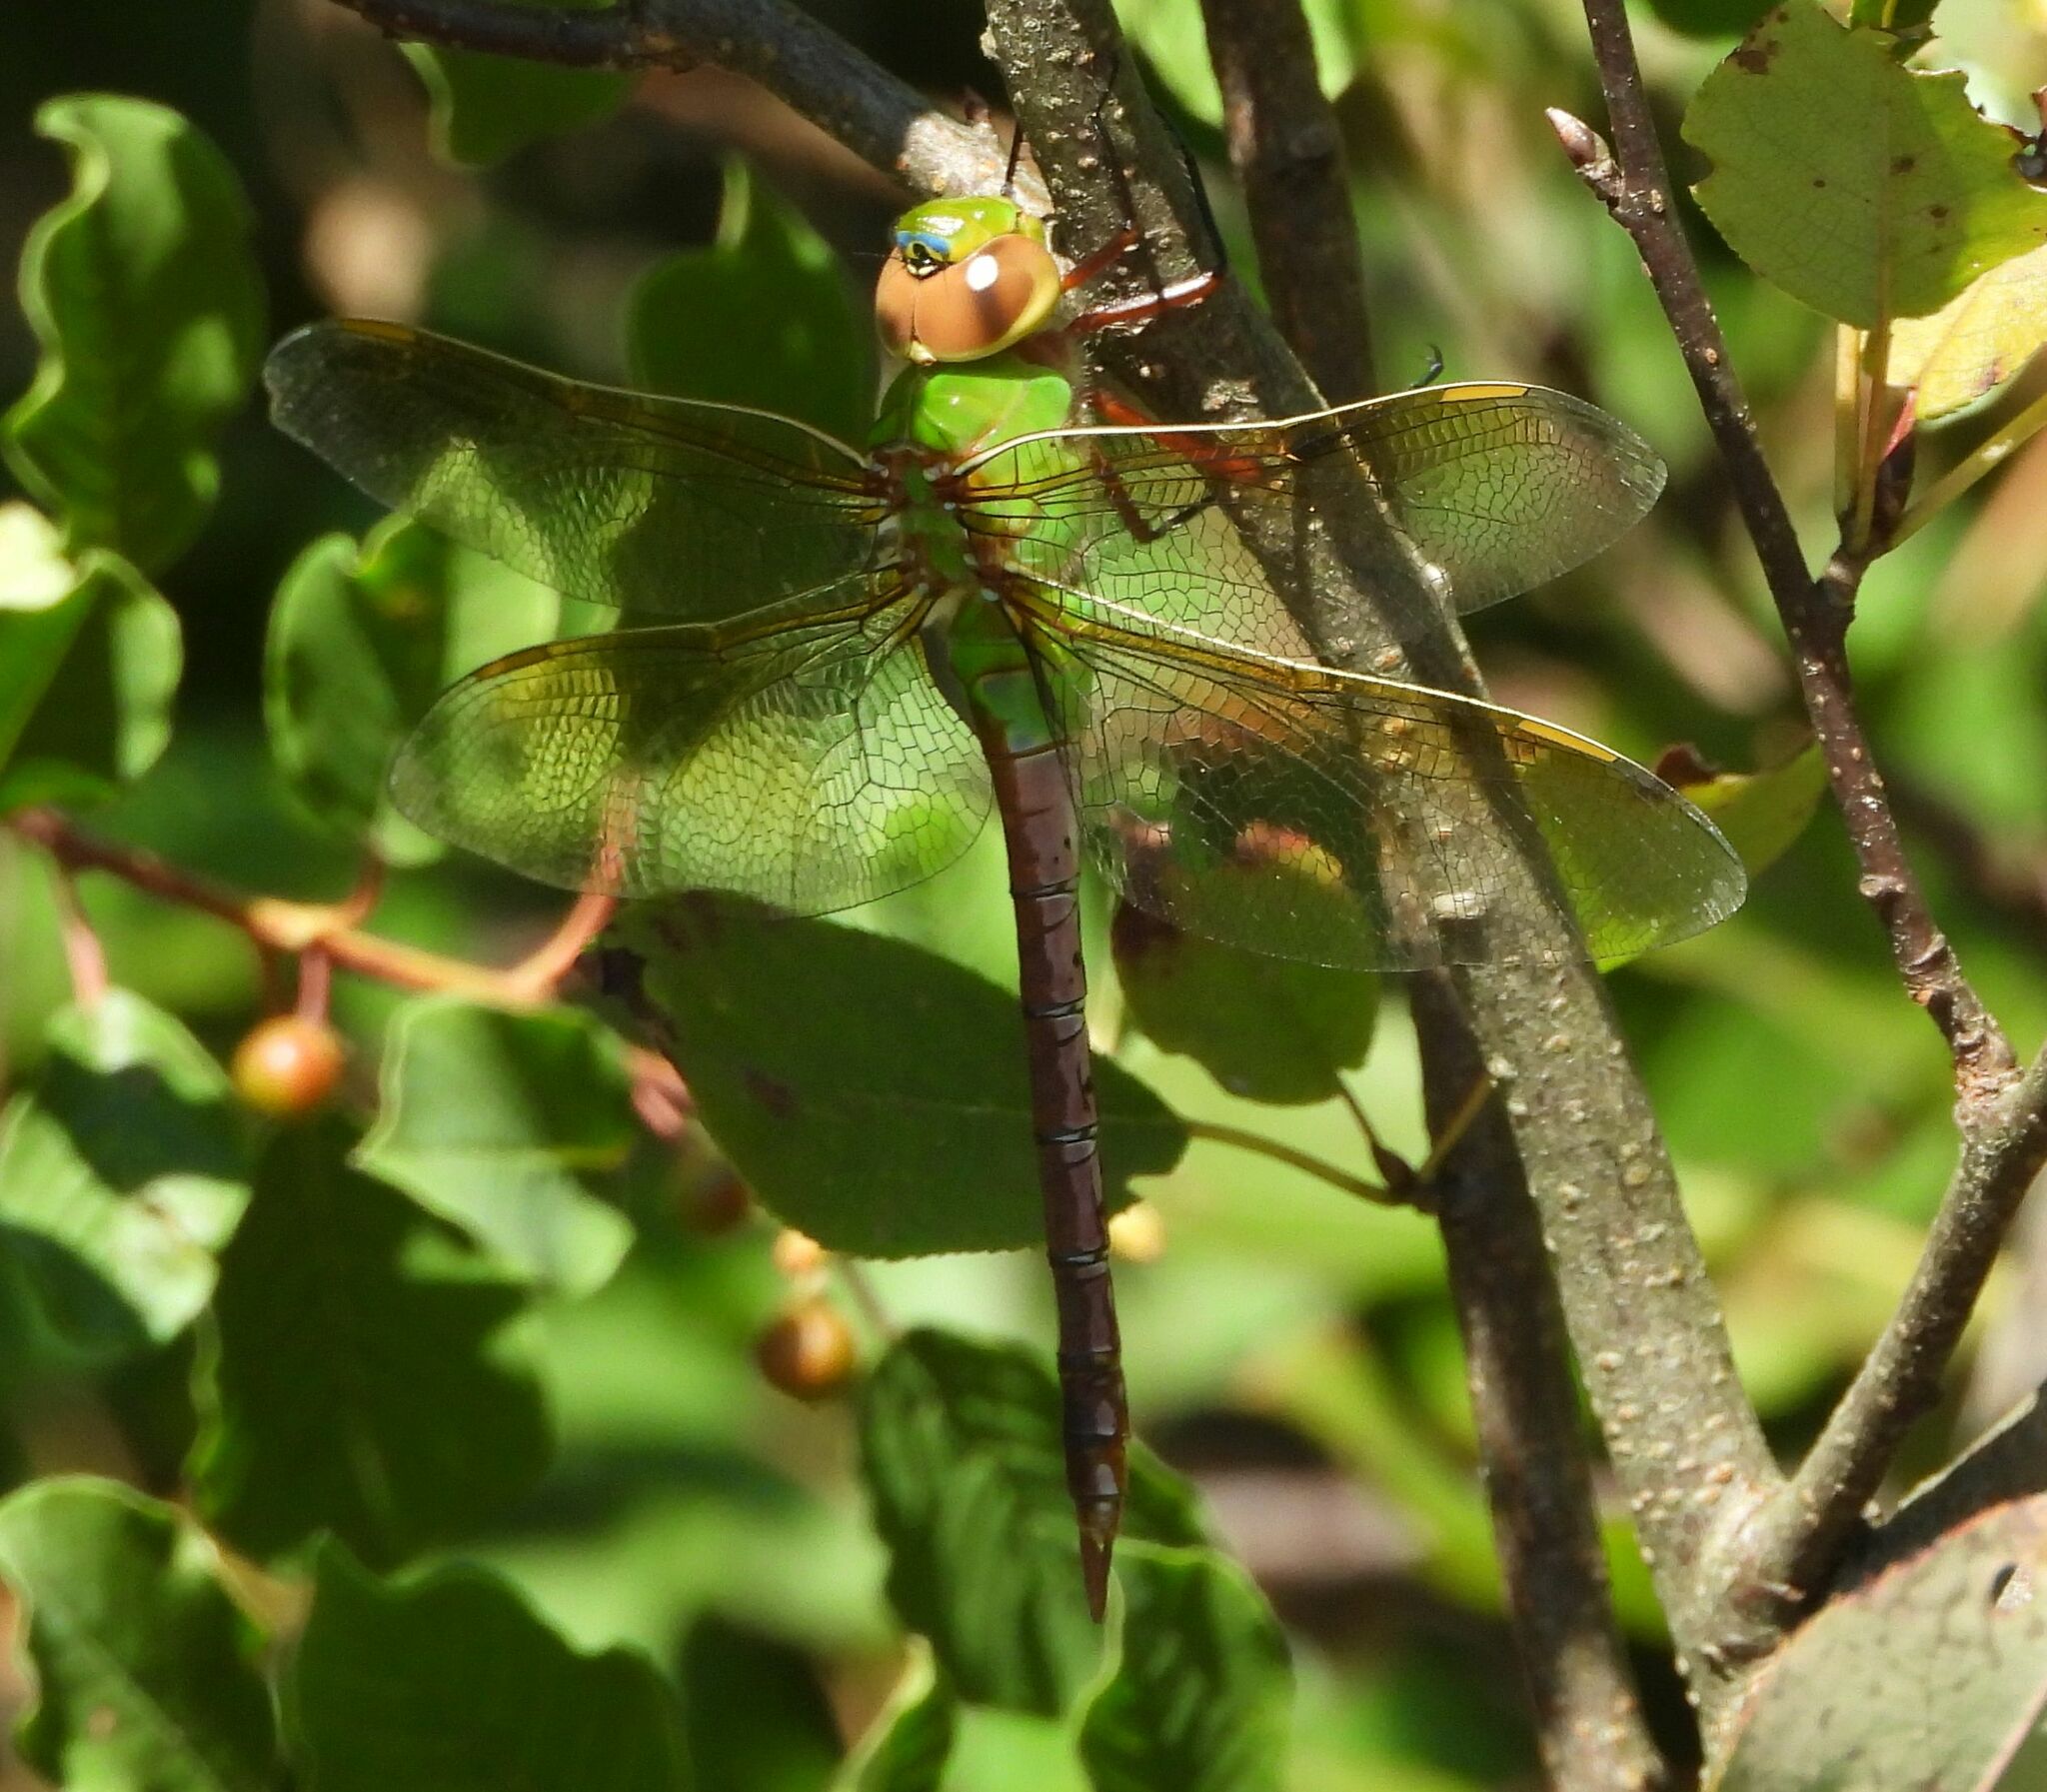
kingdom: Animalia
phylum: Arthropoda
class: Insecta
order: Odonata
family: Aeshnidae
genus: Anax
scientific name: Anax junius
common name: Common green darner
